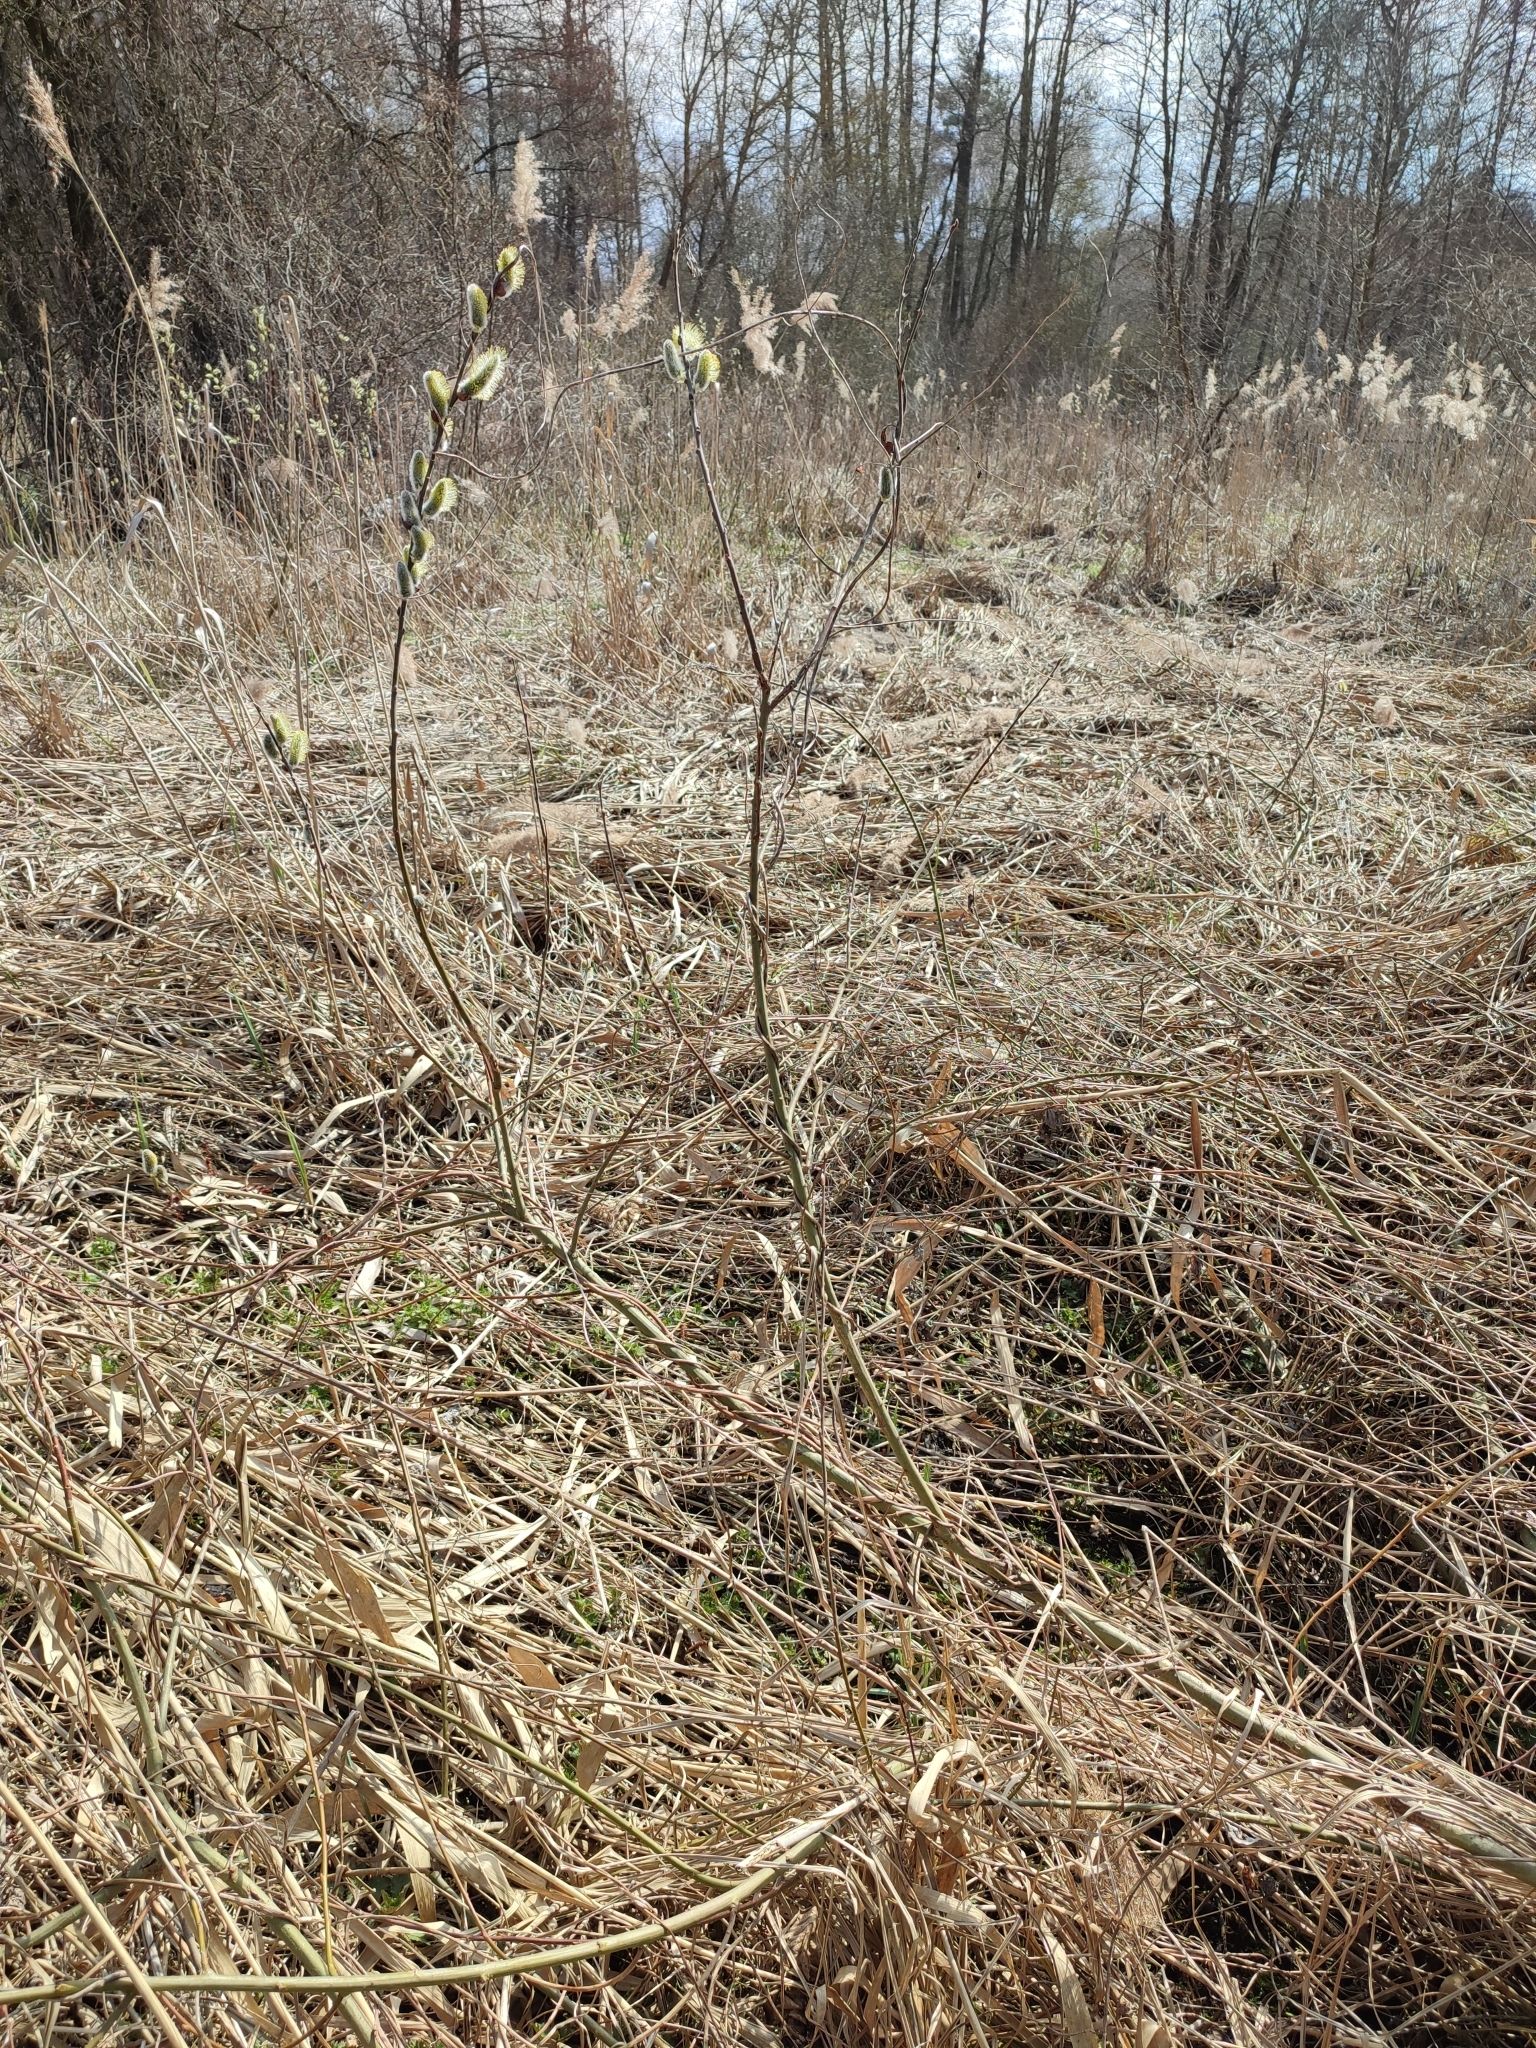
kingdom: Plantae
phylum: Tracheophyta
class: Magnoliopsida
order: Malpighiales
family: Salicaceae
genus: Salix
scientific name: Salix cinerea
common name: Common sallow
